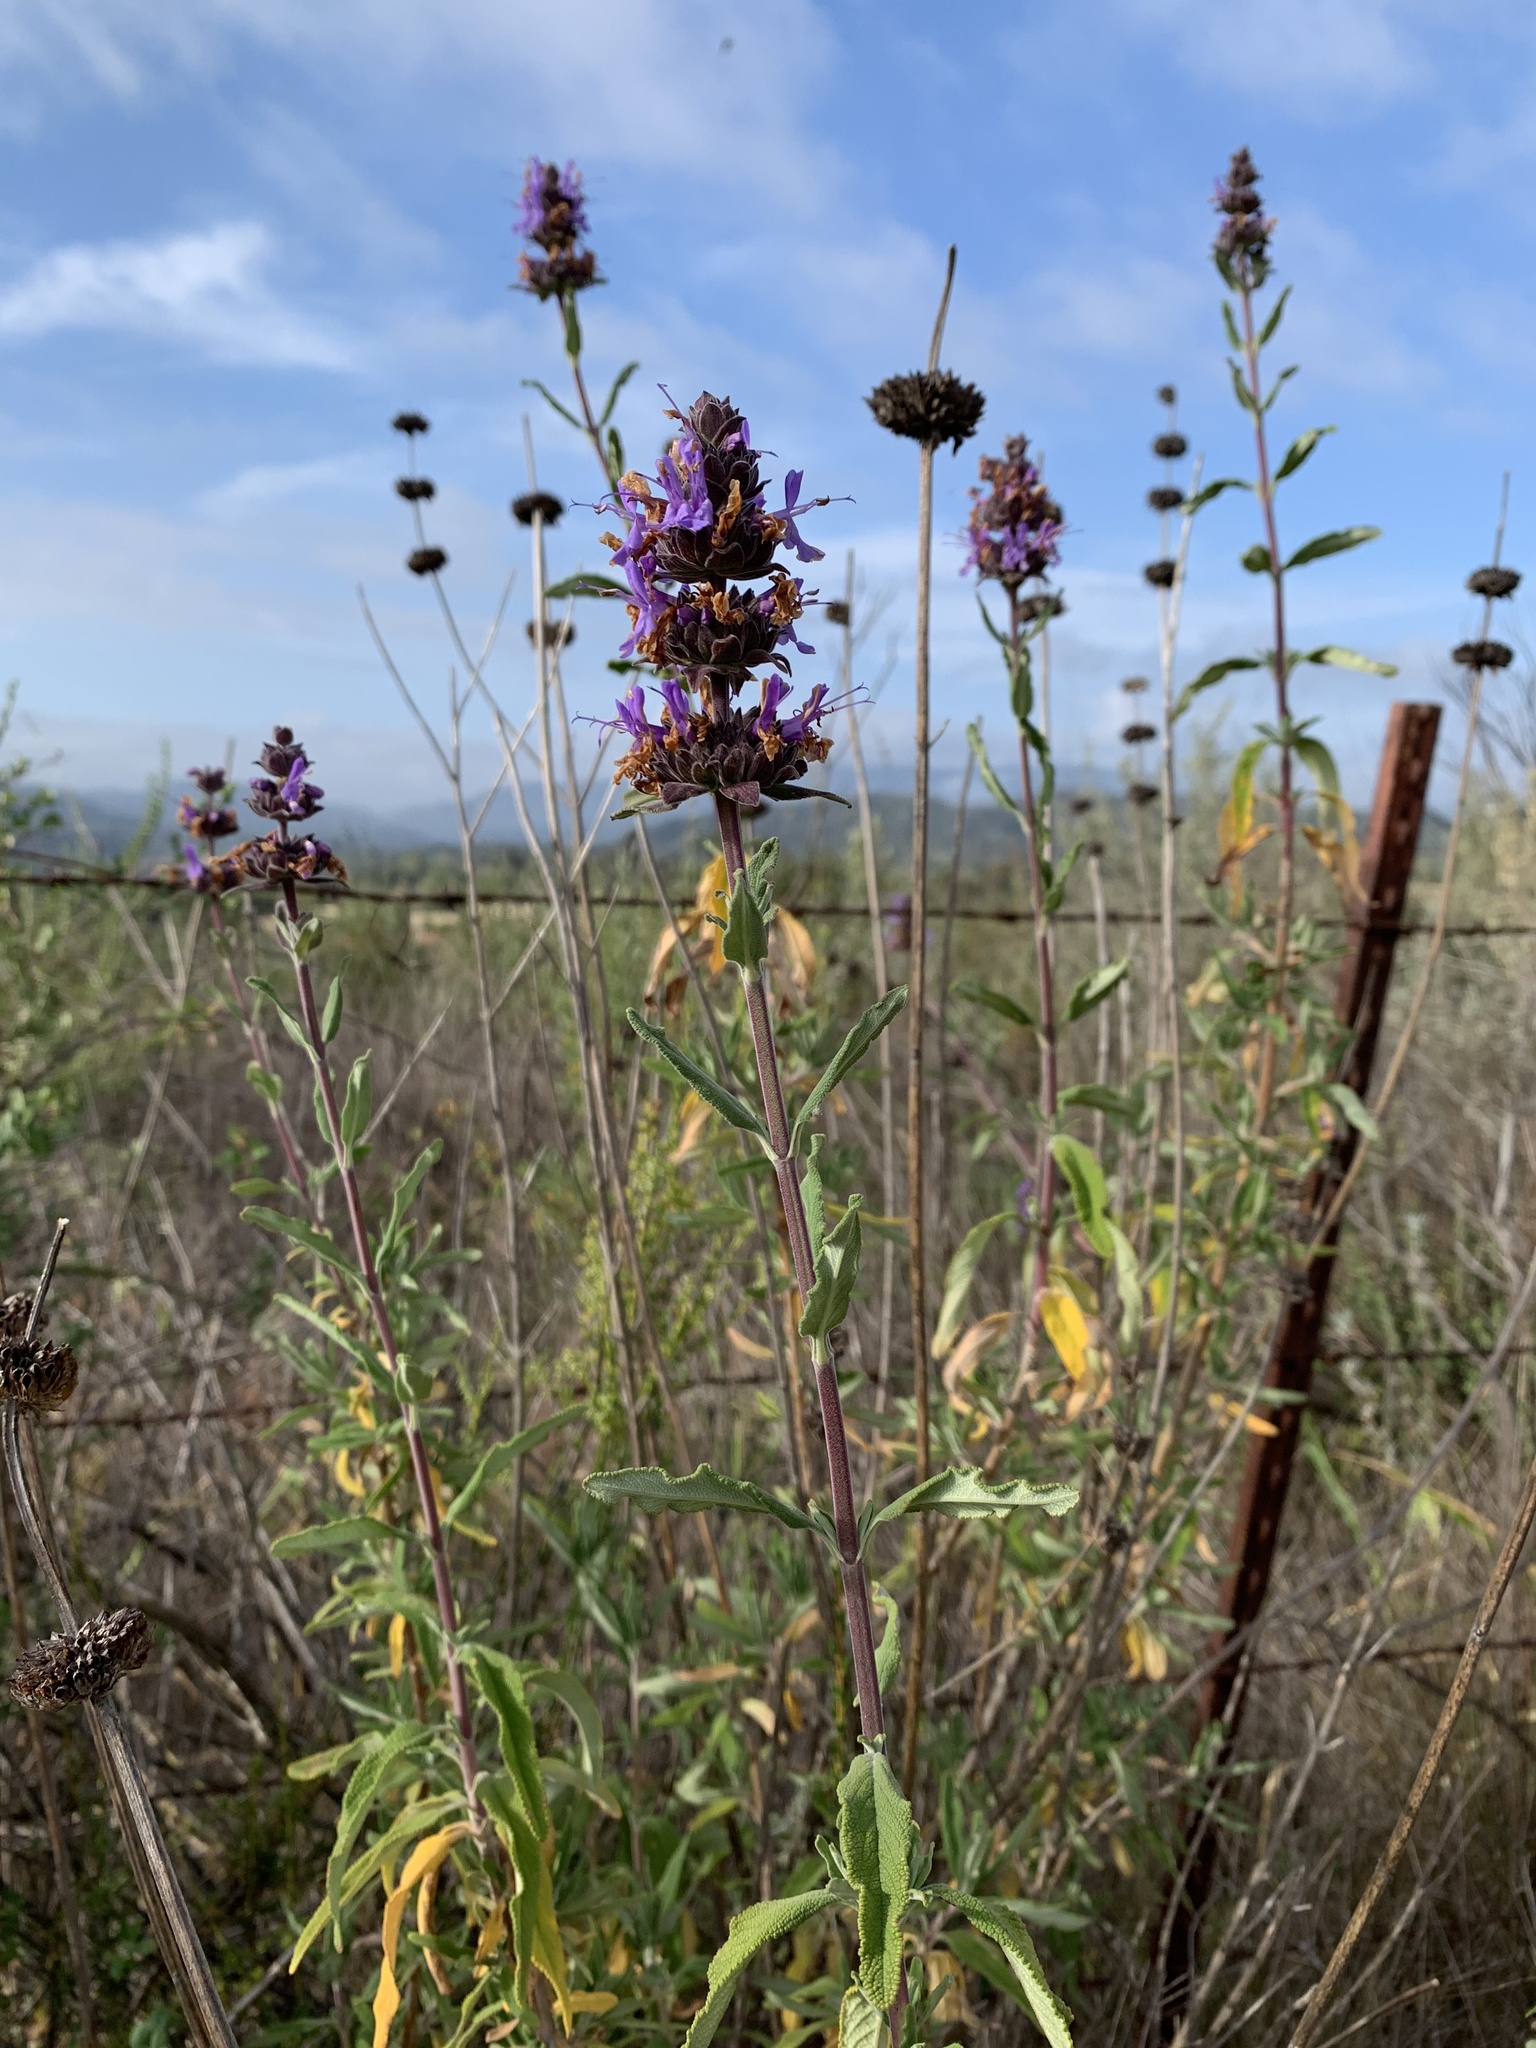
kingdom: Plantae
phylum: Tracheophyta
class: Magnoliopsida
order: Lamiales
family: Lamiaceae
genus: Salvia
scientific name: Salvia mellifera
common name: Black sage
